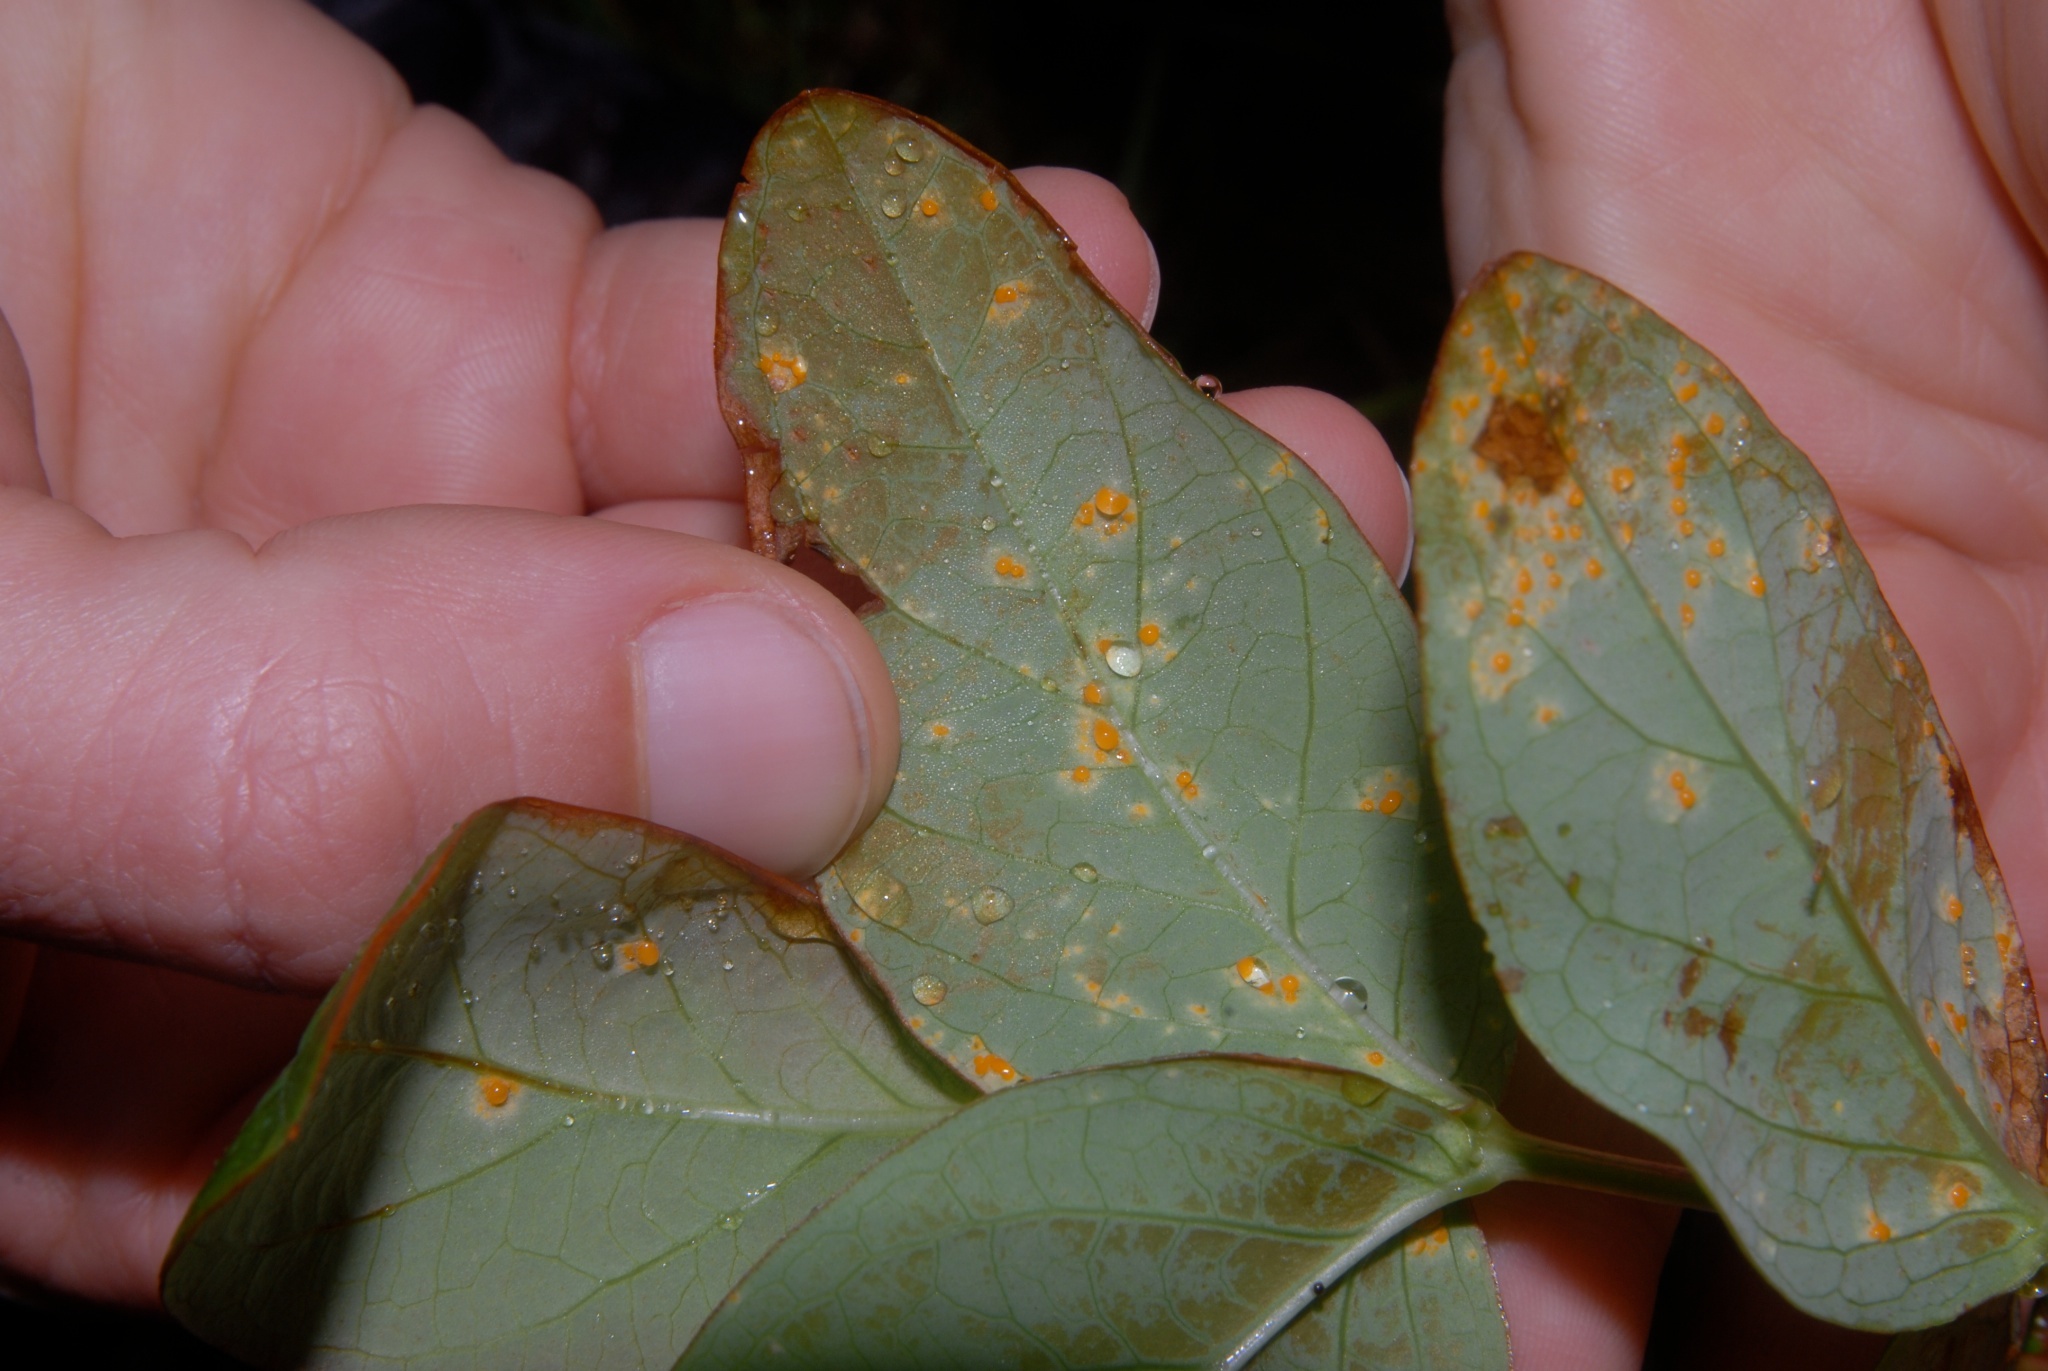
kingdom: Fungi
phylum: Basidiomycota
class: Pucciniomycetes
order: Pucciniales
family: Melampsoraceae
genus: Melampsora
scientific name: Melampsora hypericorum
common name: Tutsan rust
